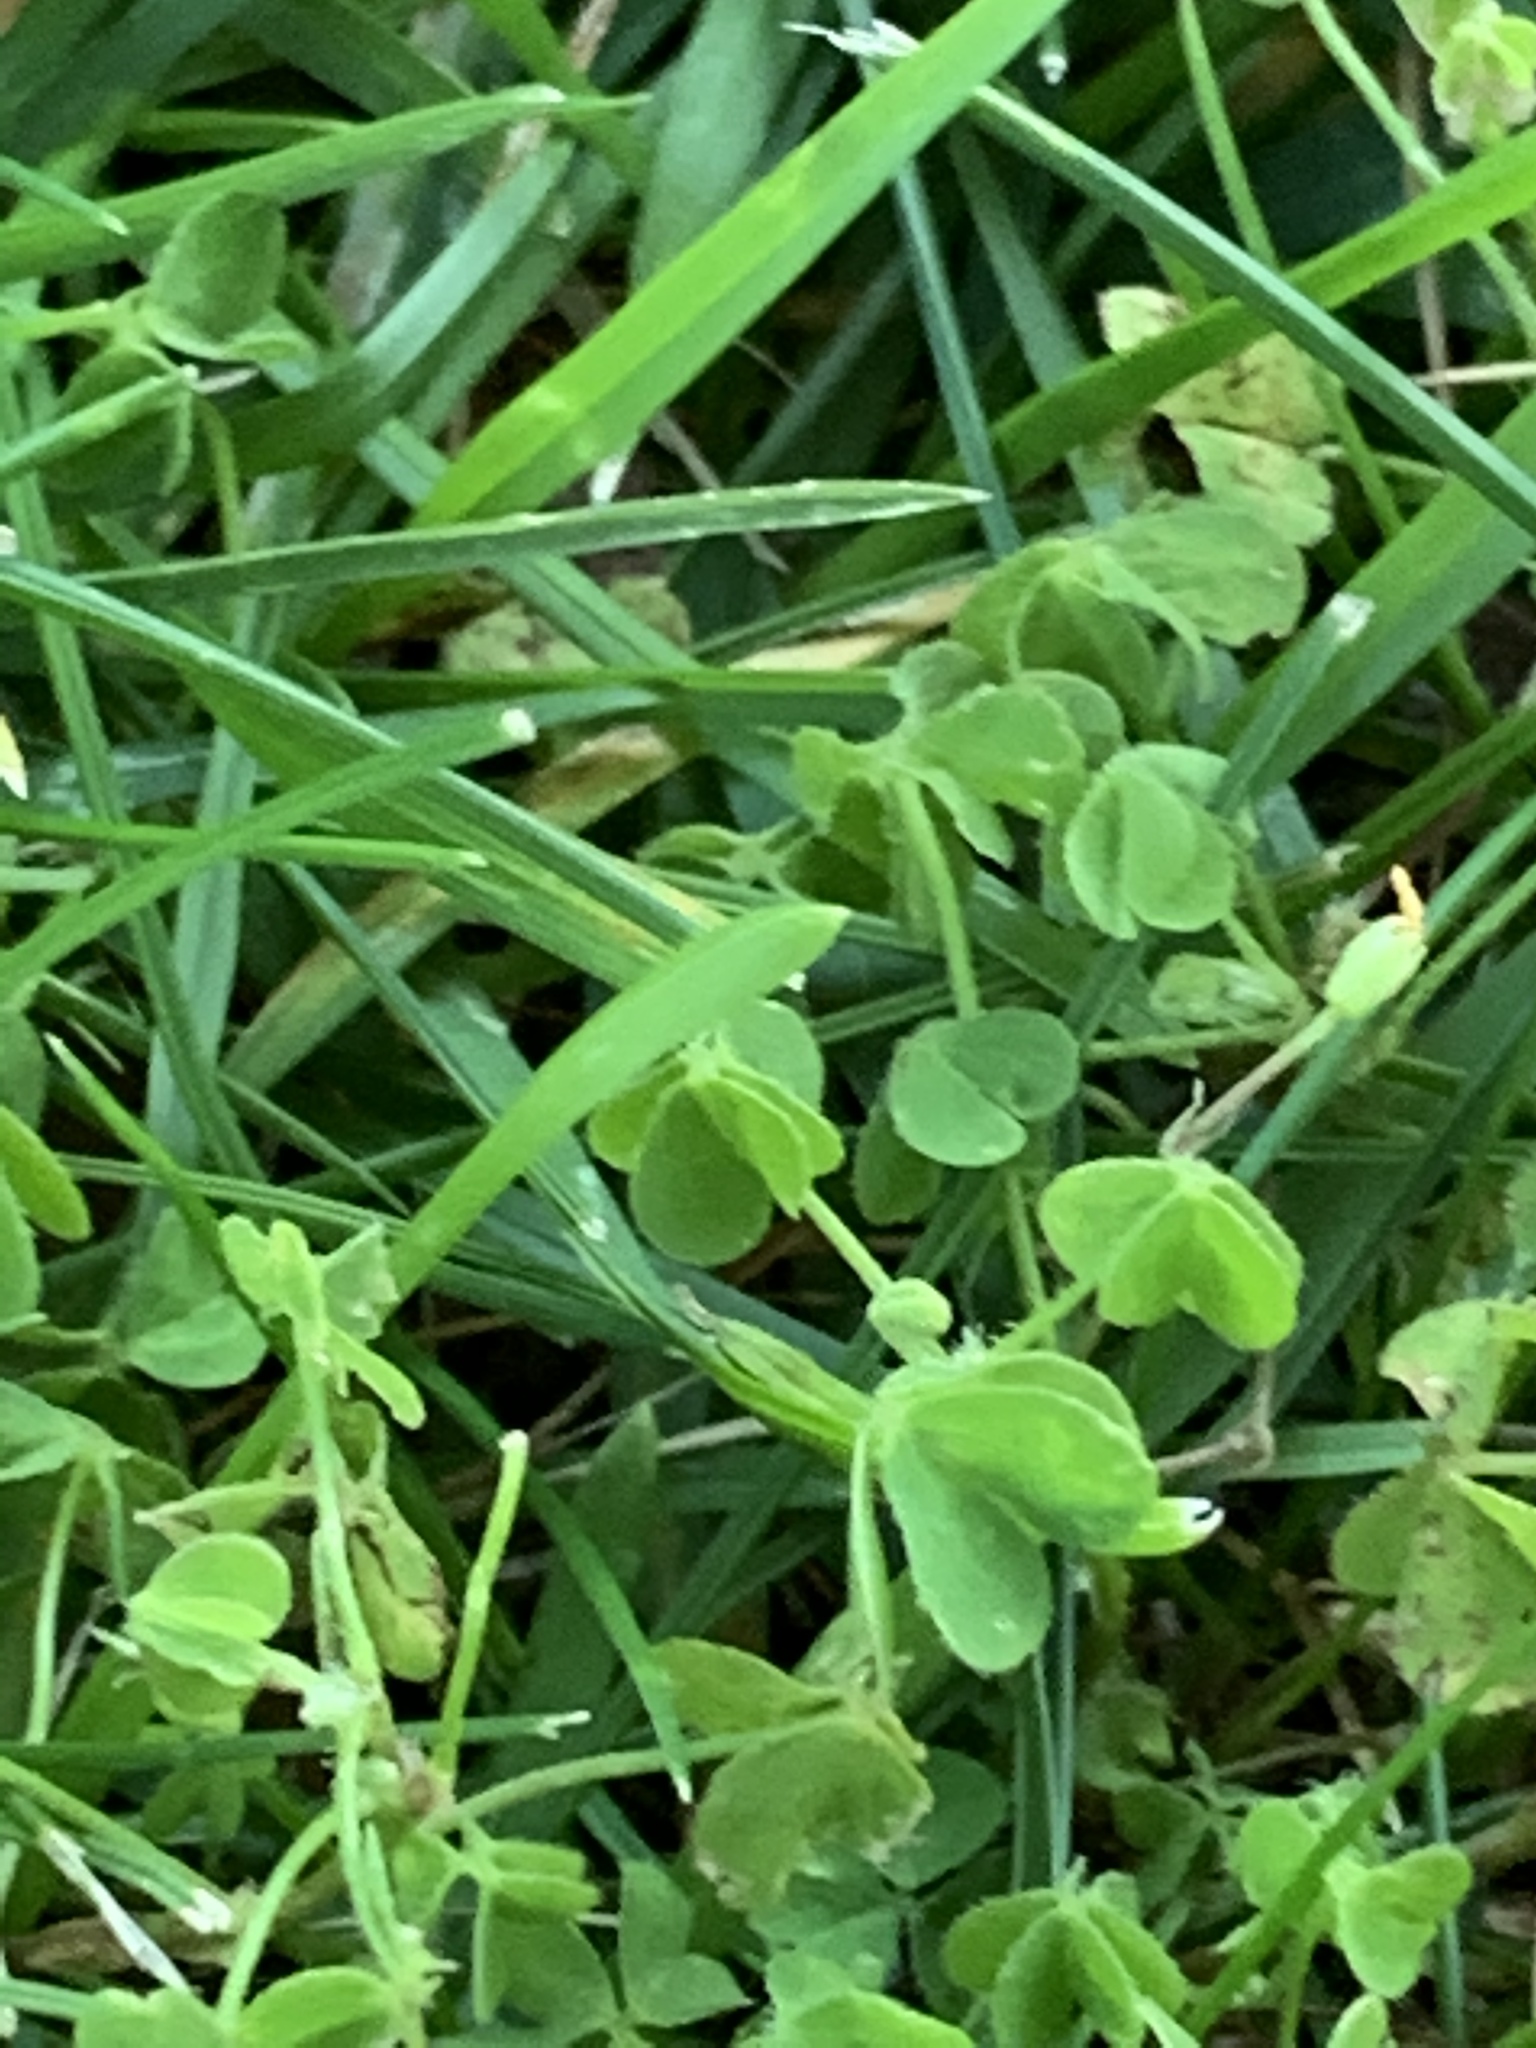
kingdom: Plantae
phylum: Tracheophyta
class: Magnoliopsida
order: Oxalidales
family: Oxalidaceae
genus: Oxalis
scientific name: Oxalis corniculata
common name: Procumbent yellow-sorrel
